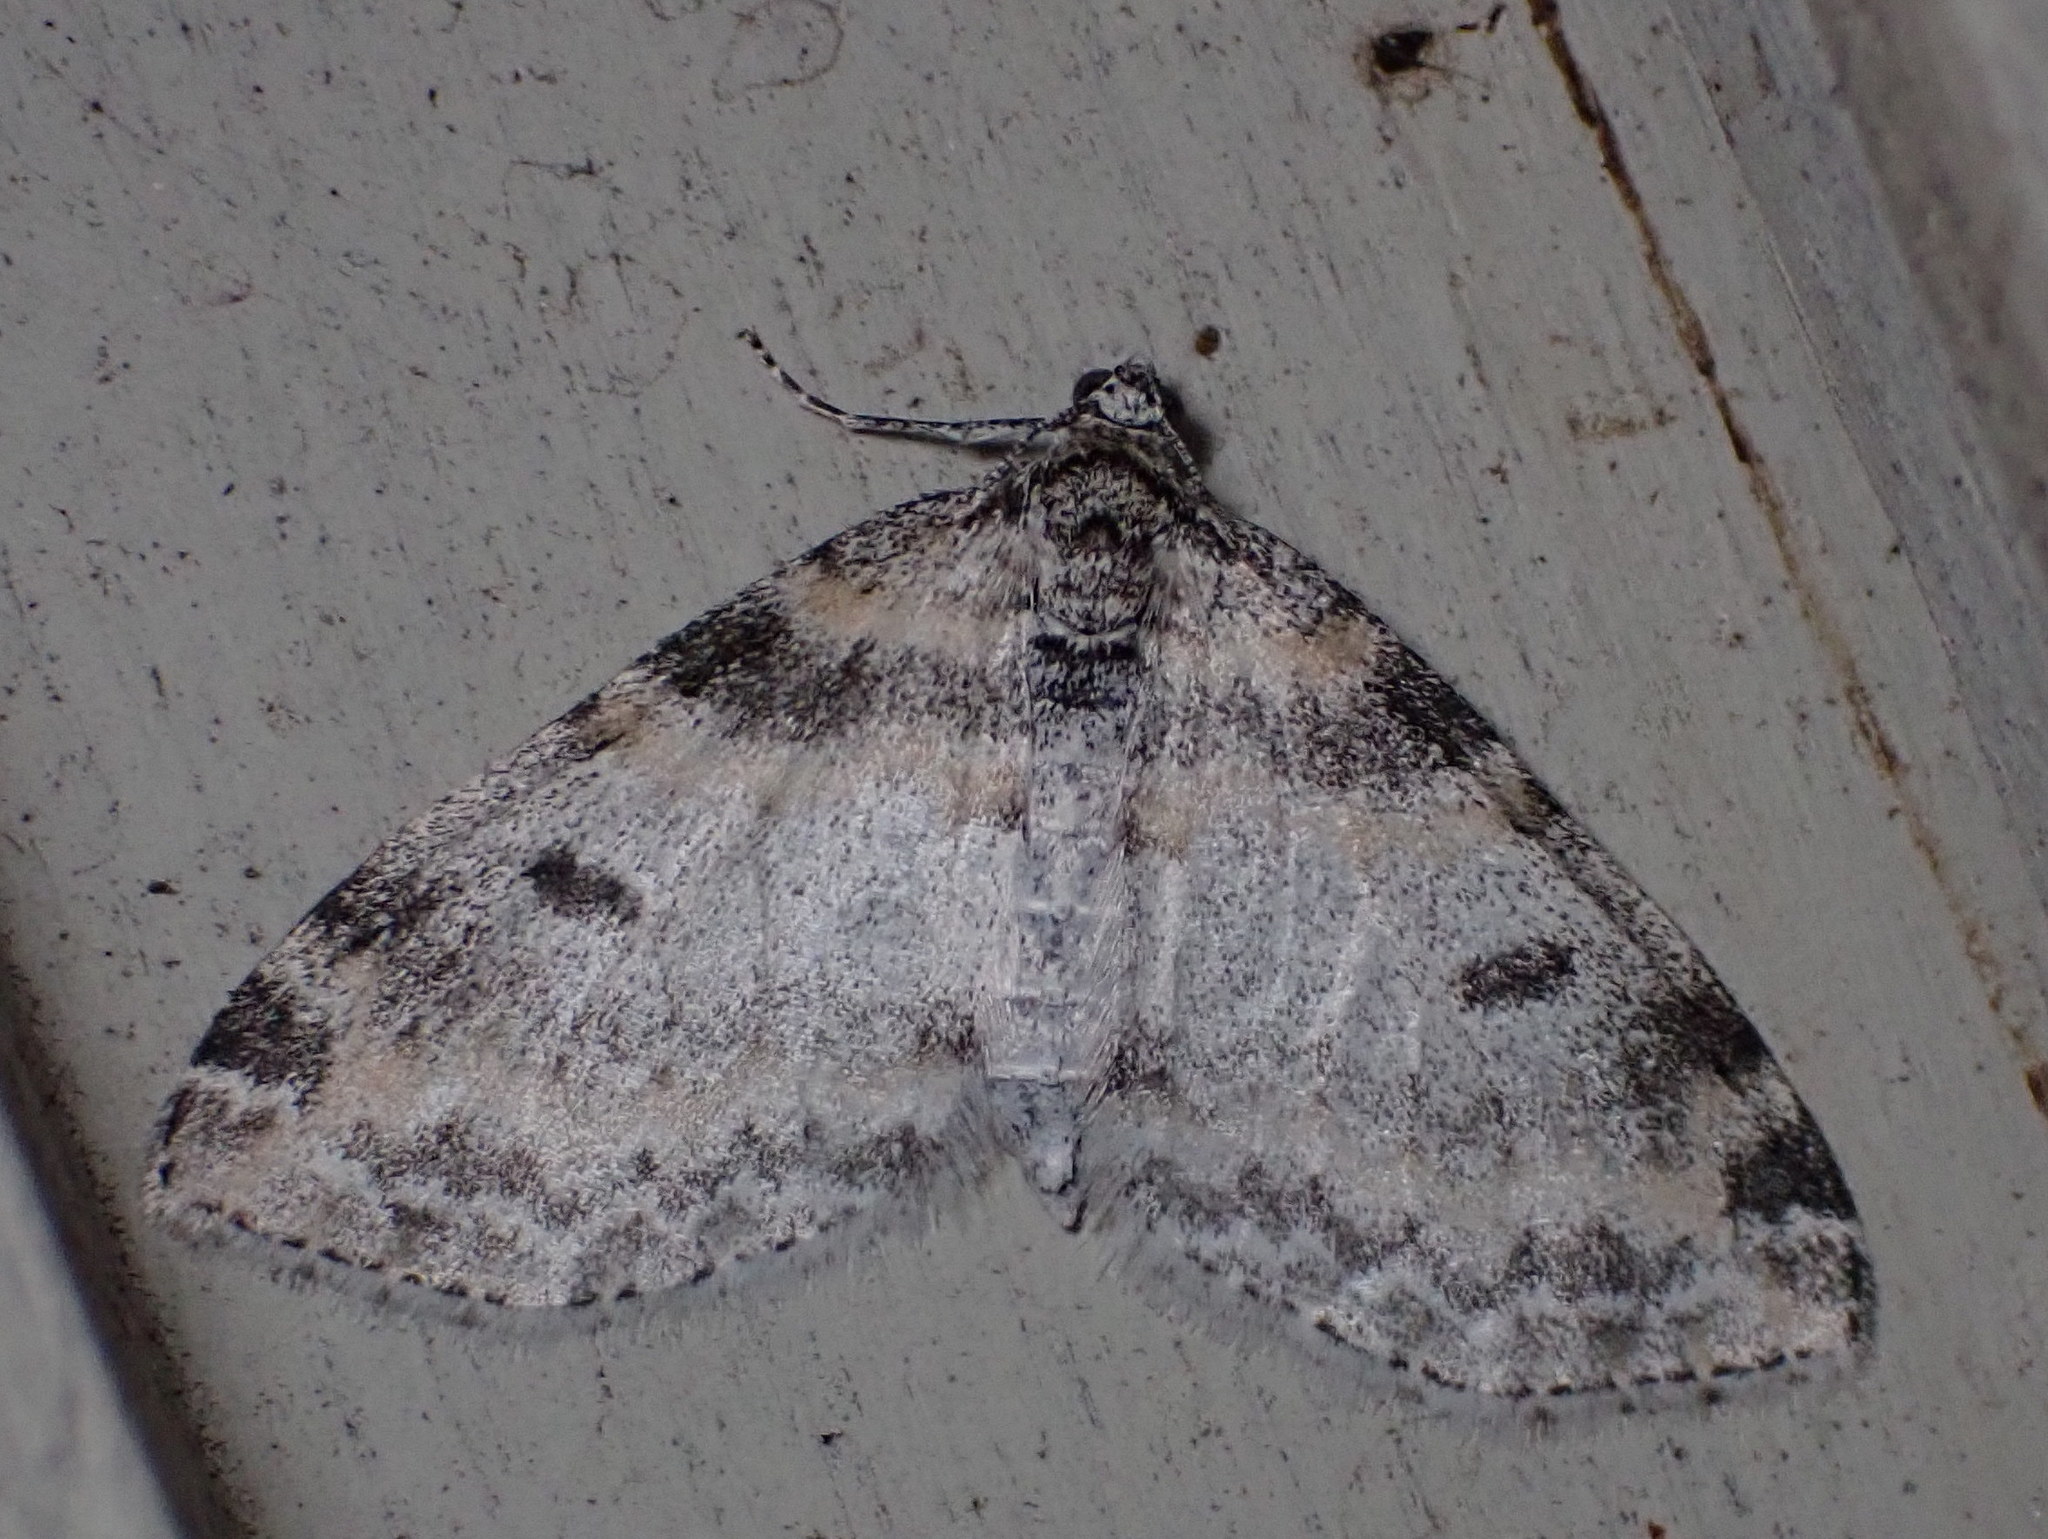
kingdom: Animalia
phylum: Arthropoda
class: Insecta
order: Lepidoptera
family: Geometridae
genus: Lobophora
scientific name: Lobophora nivigerata
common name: Powdered bigwing
